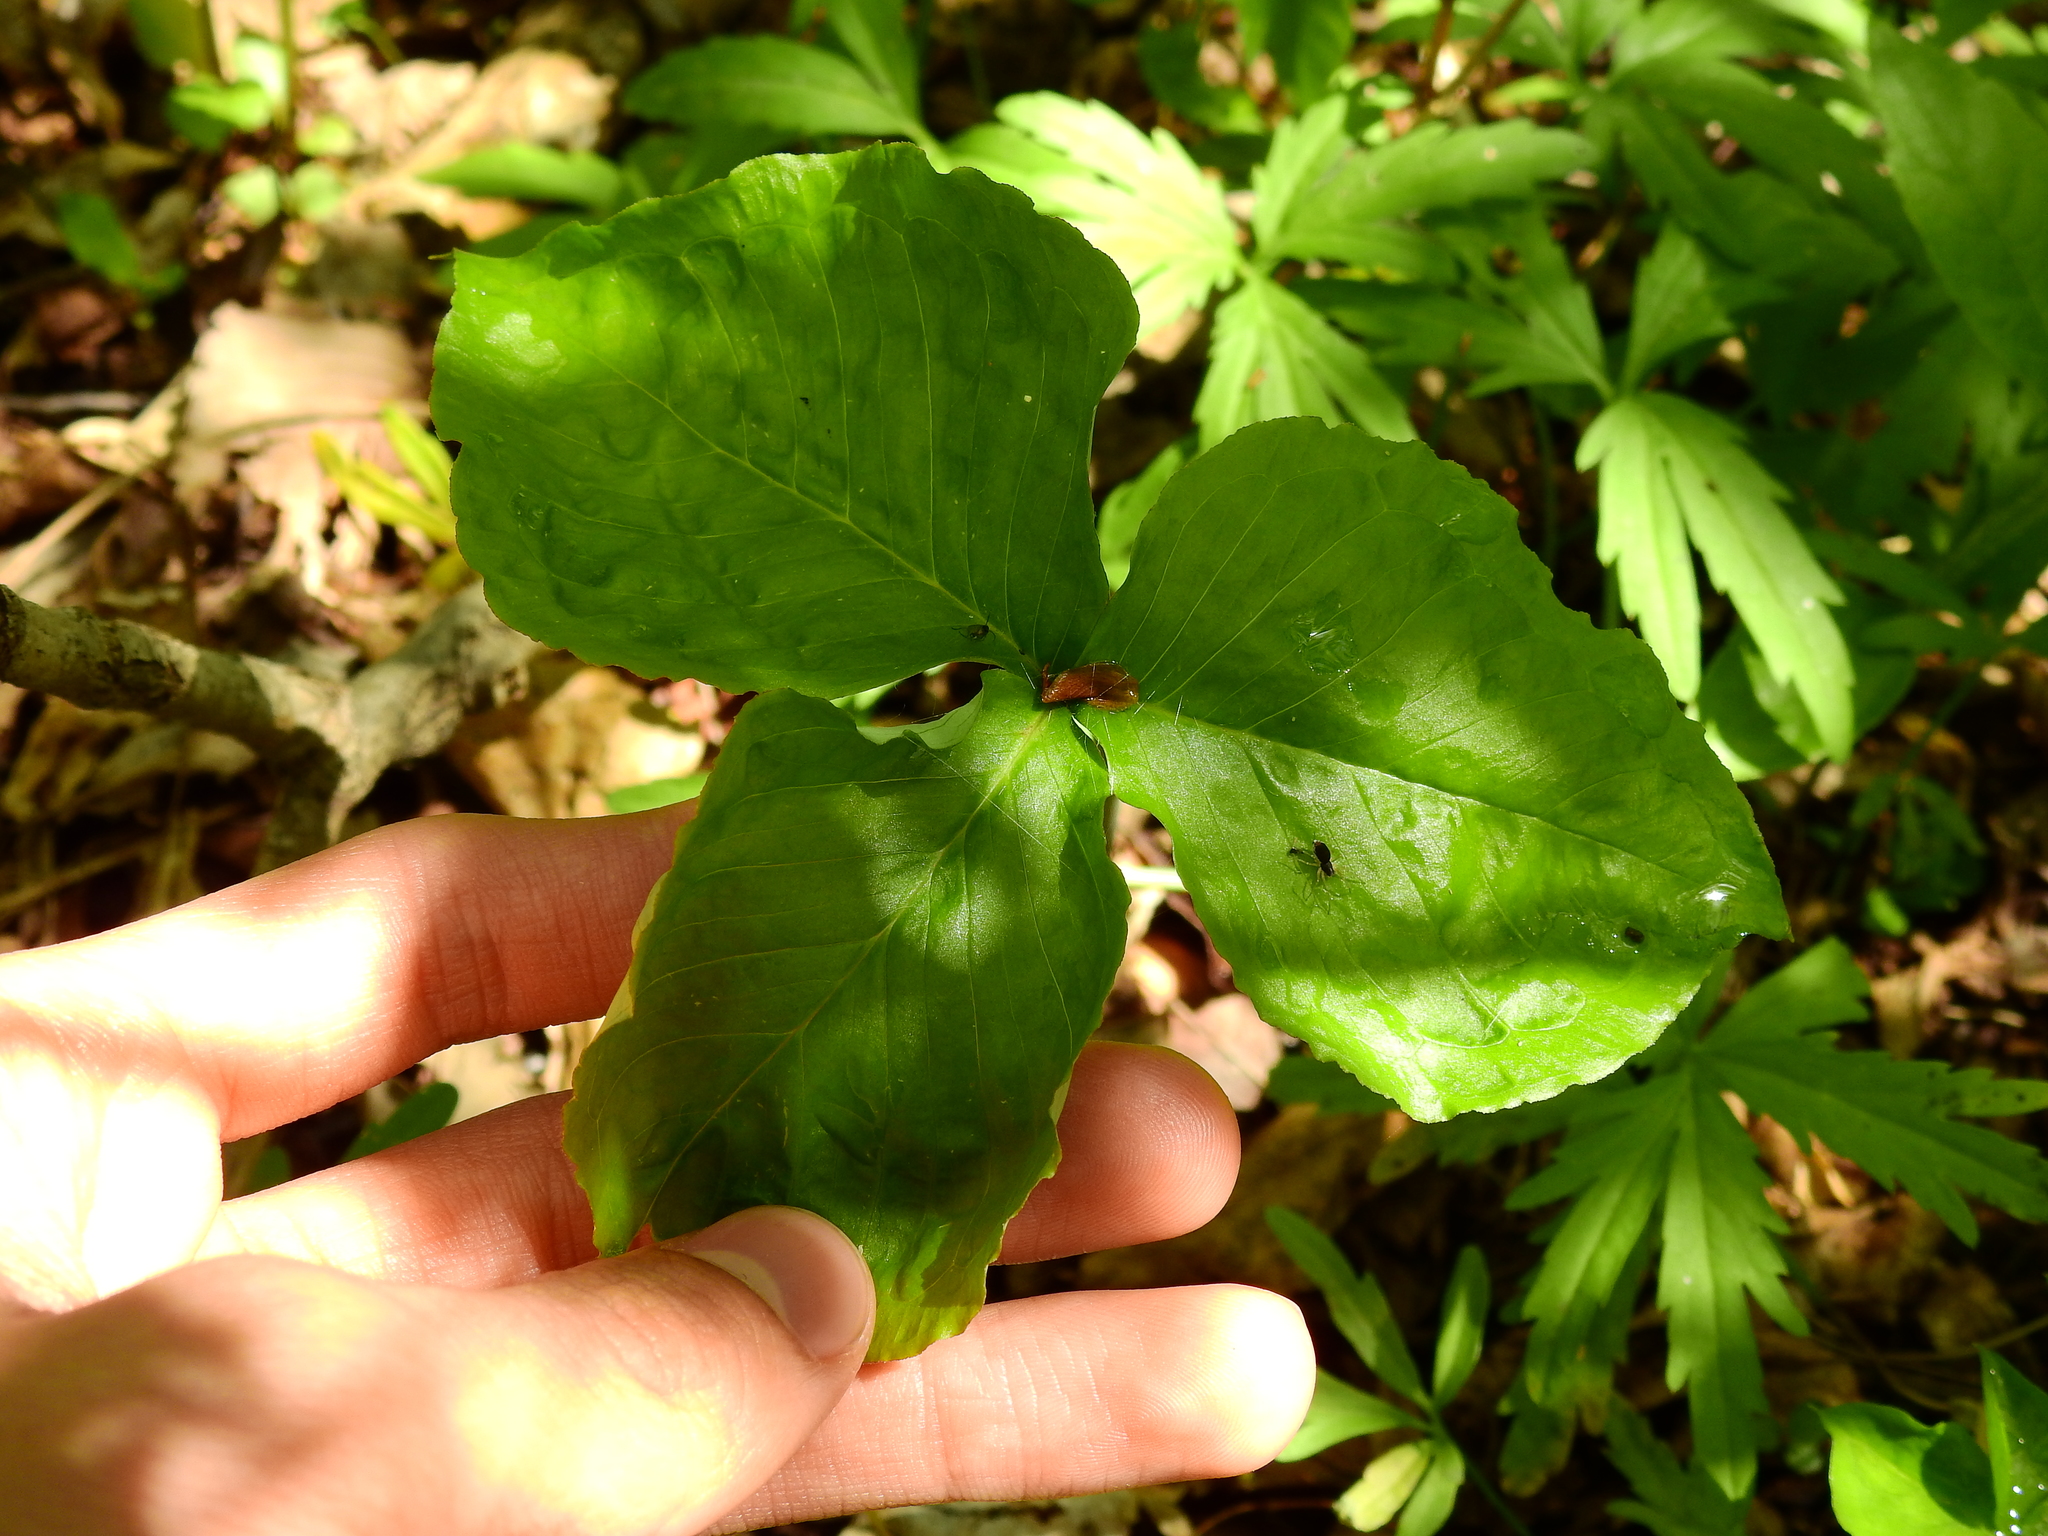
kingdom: Plantae
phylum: Tracheophyta
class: Liliopsida
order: Alismatales
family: Araceae
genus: Arisaema
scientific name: Arisaema triphyllum
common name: Jack-in-the-pulpit
